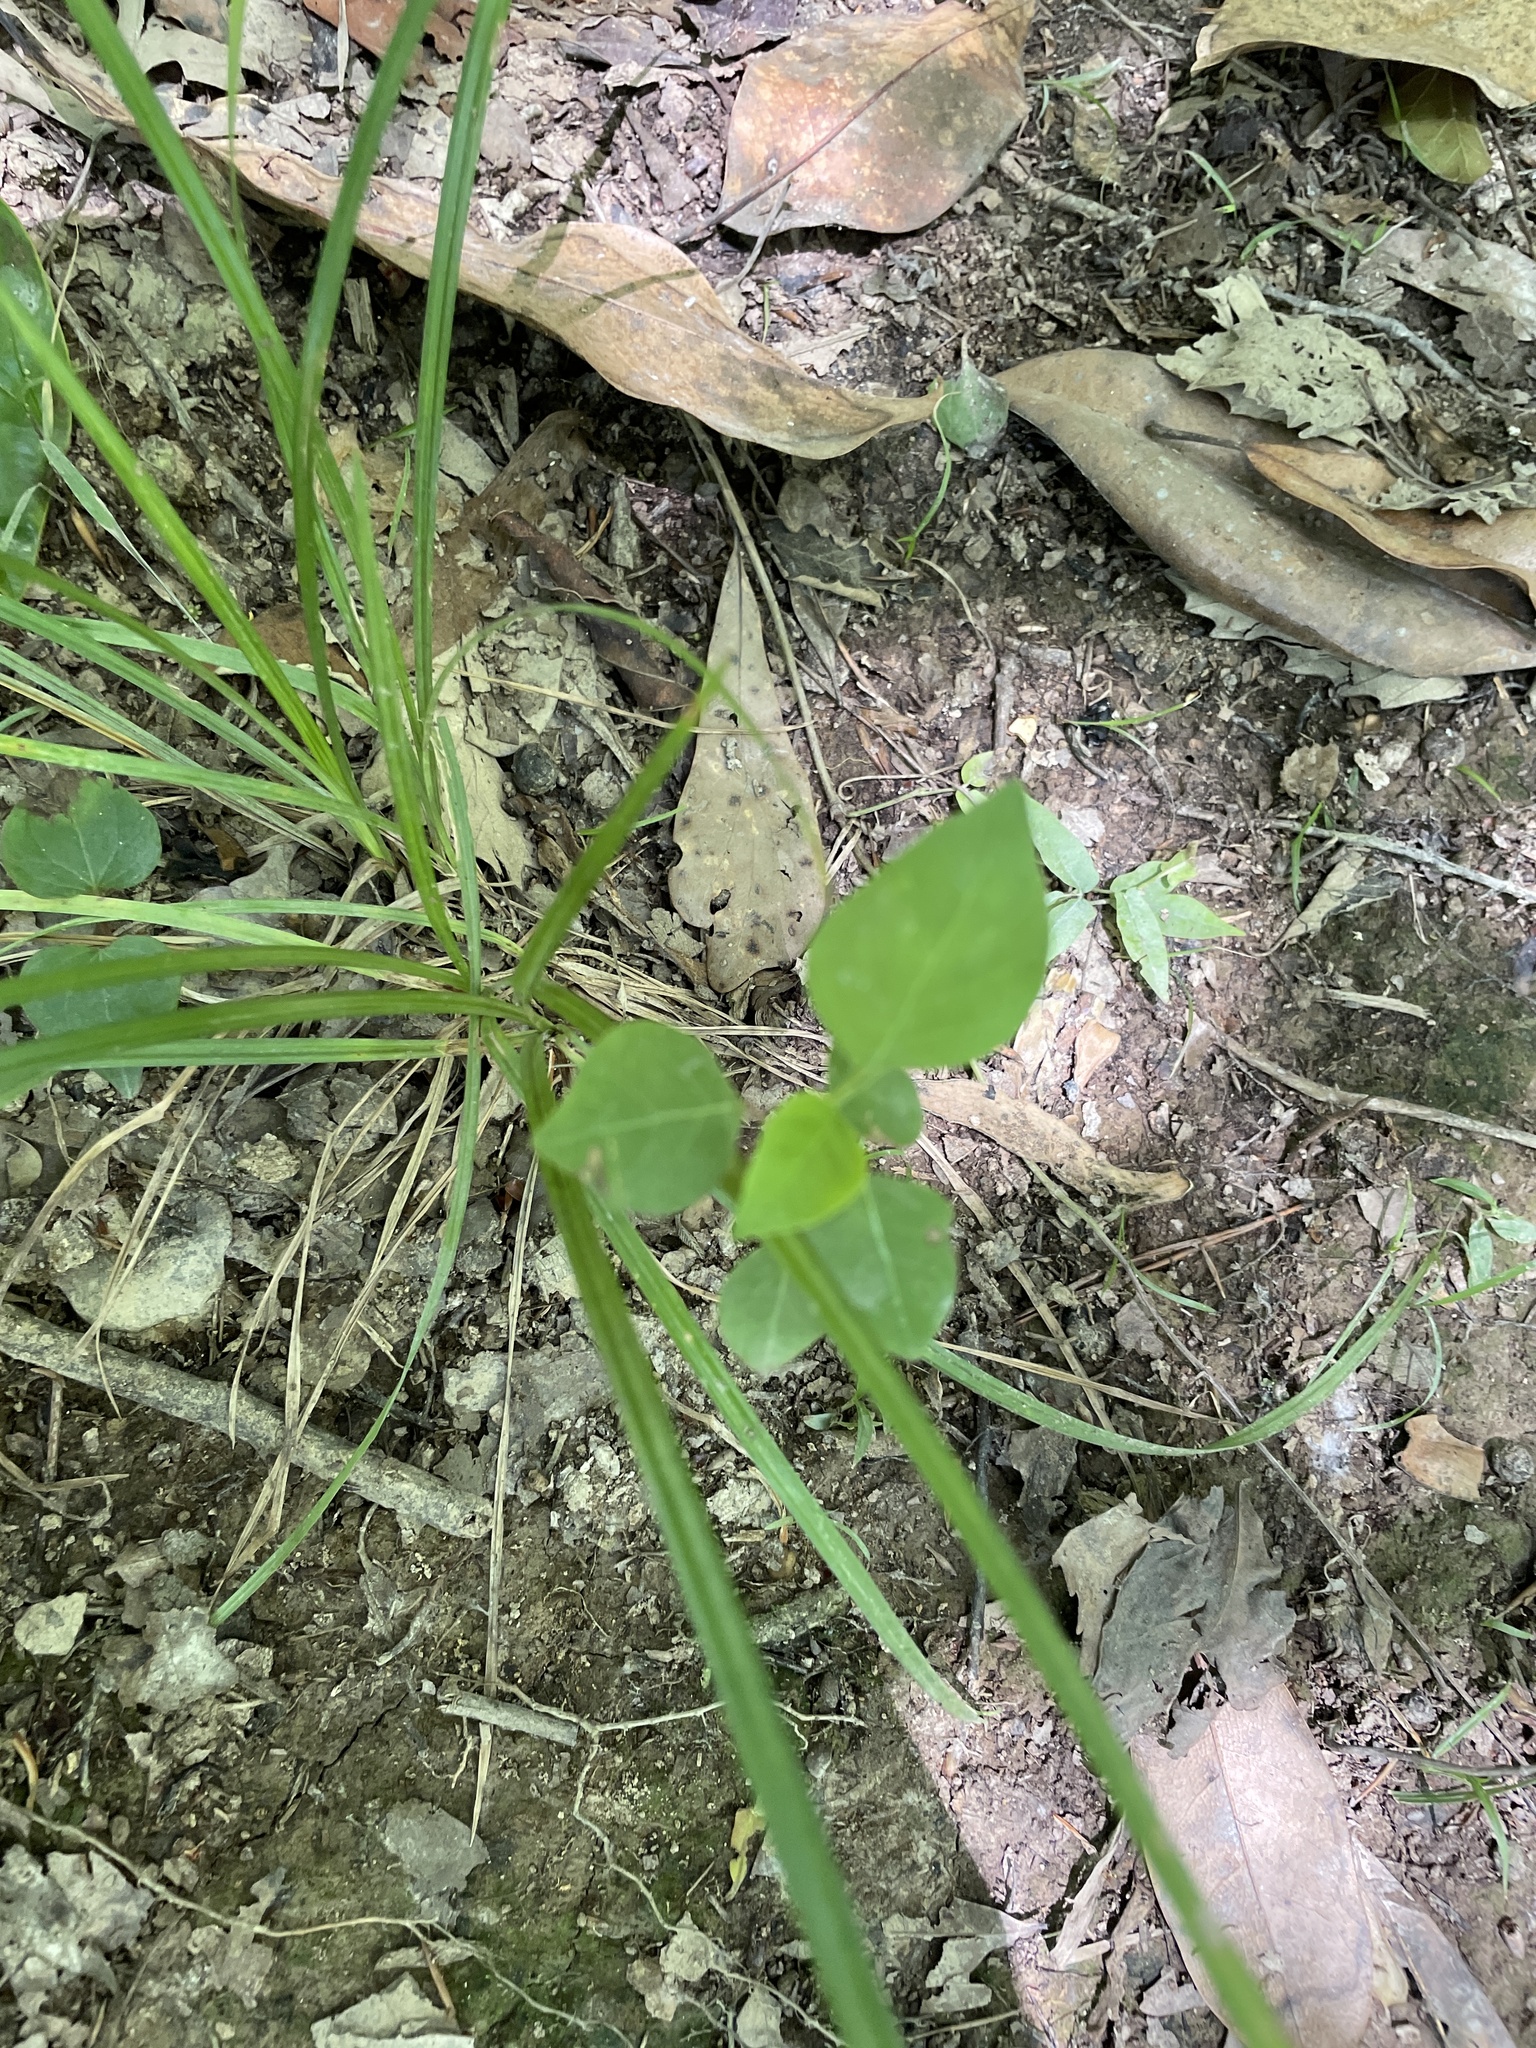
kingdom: Plantae
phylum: Tracheophyta
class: Magnoliopsida
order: Malpighiales
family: Euphorbiaceae
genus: Triadica
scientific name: Triadica sebifera
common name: Chinese tallow
